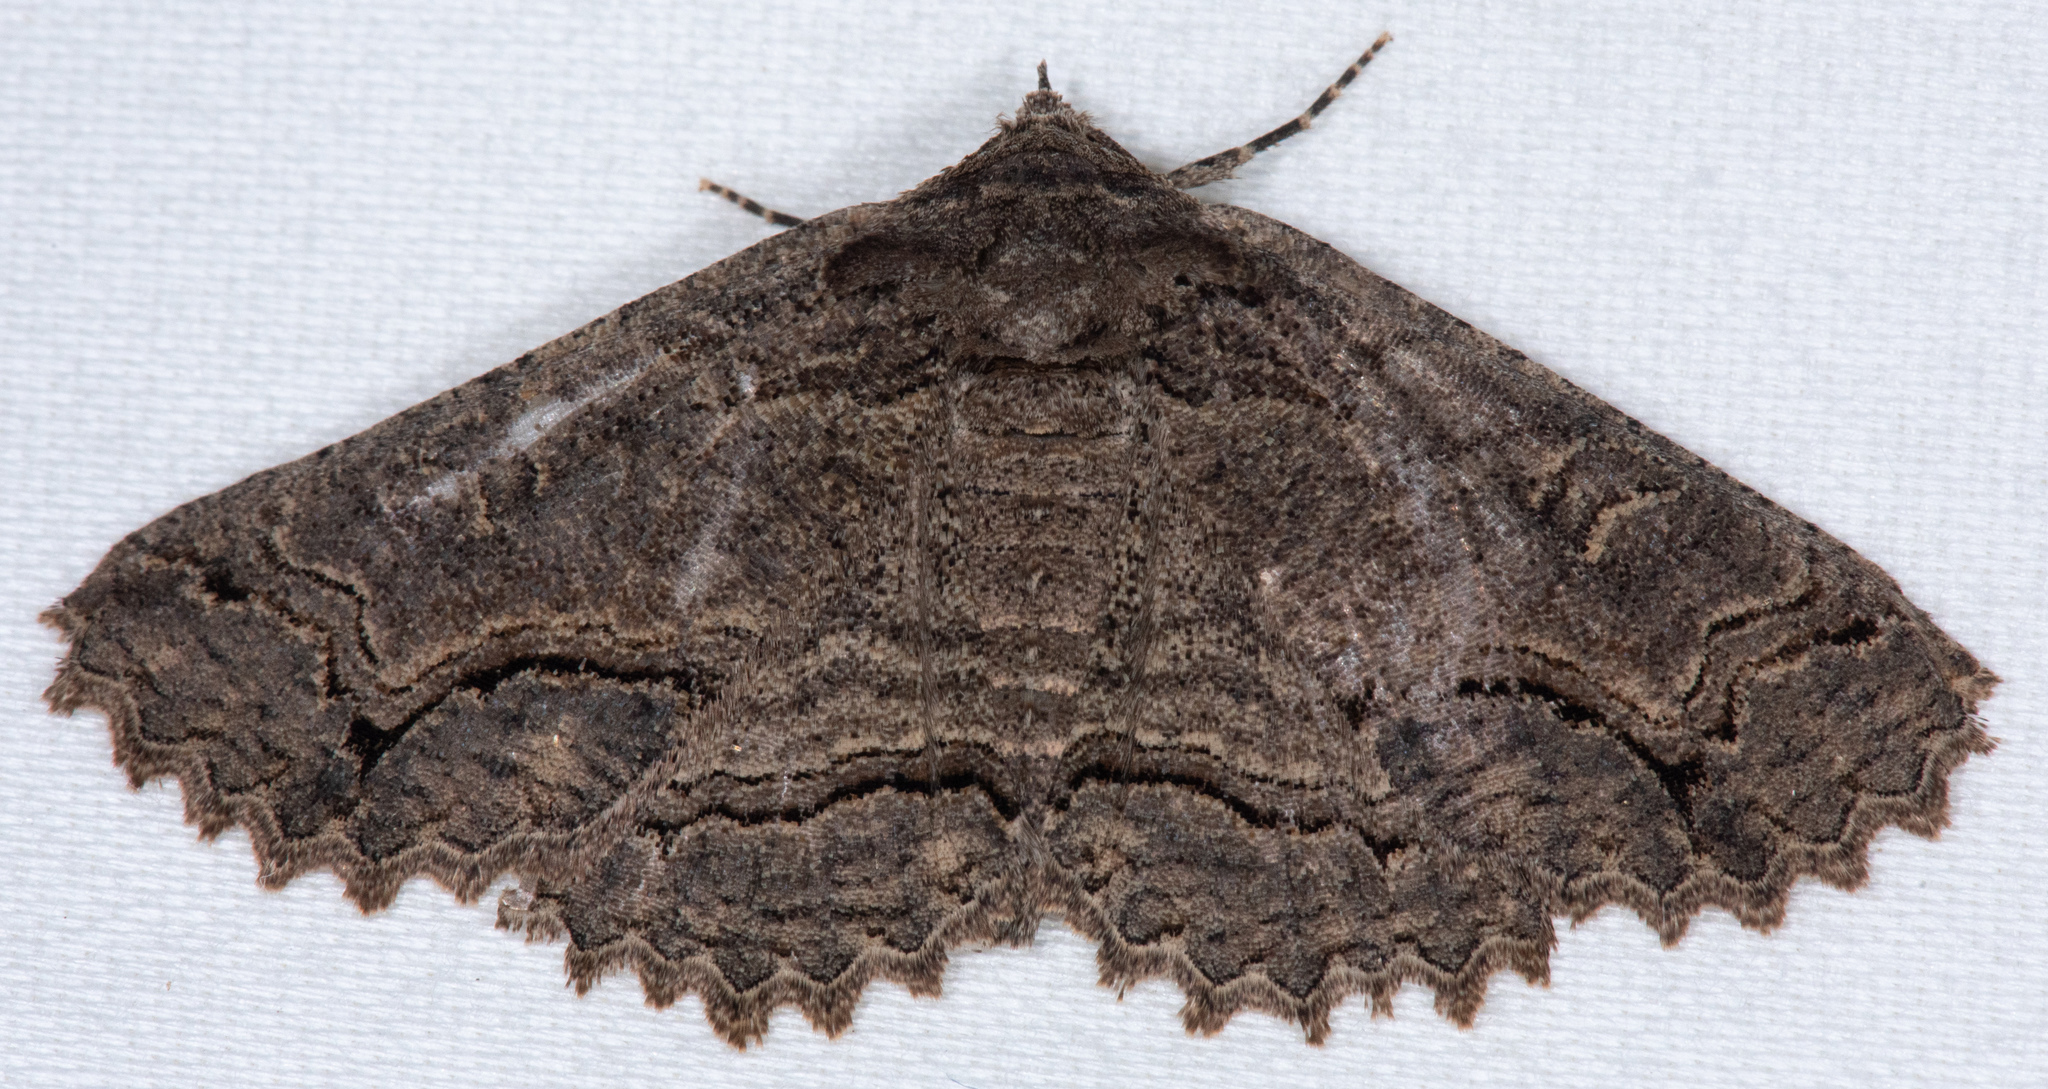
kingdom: Animalia
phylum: Arthropoda
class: Insecta
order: Lepidoptera
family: Erebidae
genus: Zale
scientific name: Zale rubi
